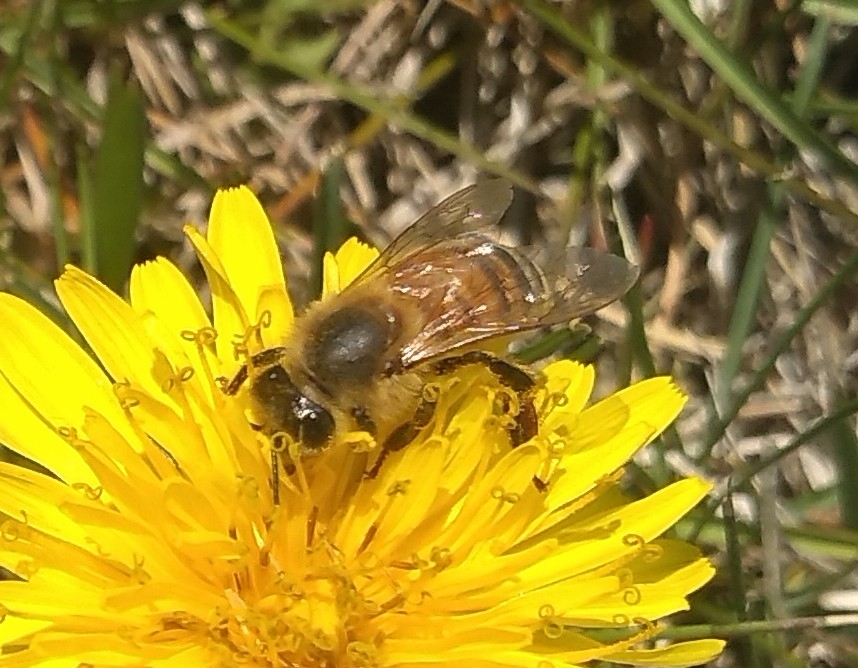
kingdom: Animalia
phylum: Arthropoda
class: Insecta
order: Hymenoptera
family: Apidae
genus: Apis
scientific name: Apis mellifera
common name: Honey bee
